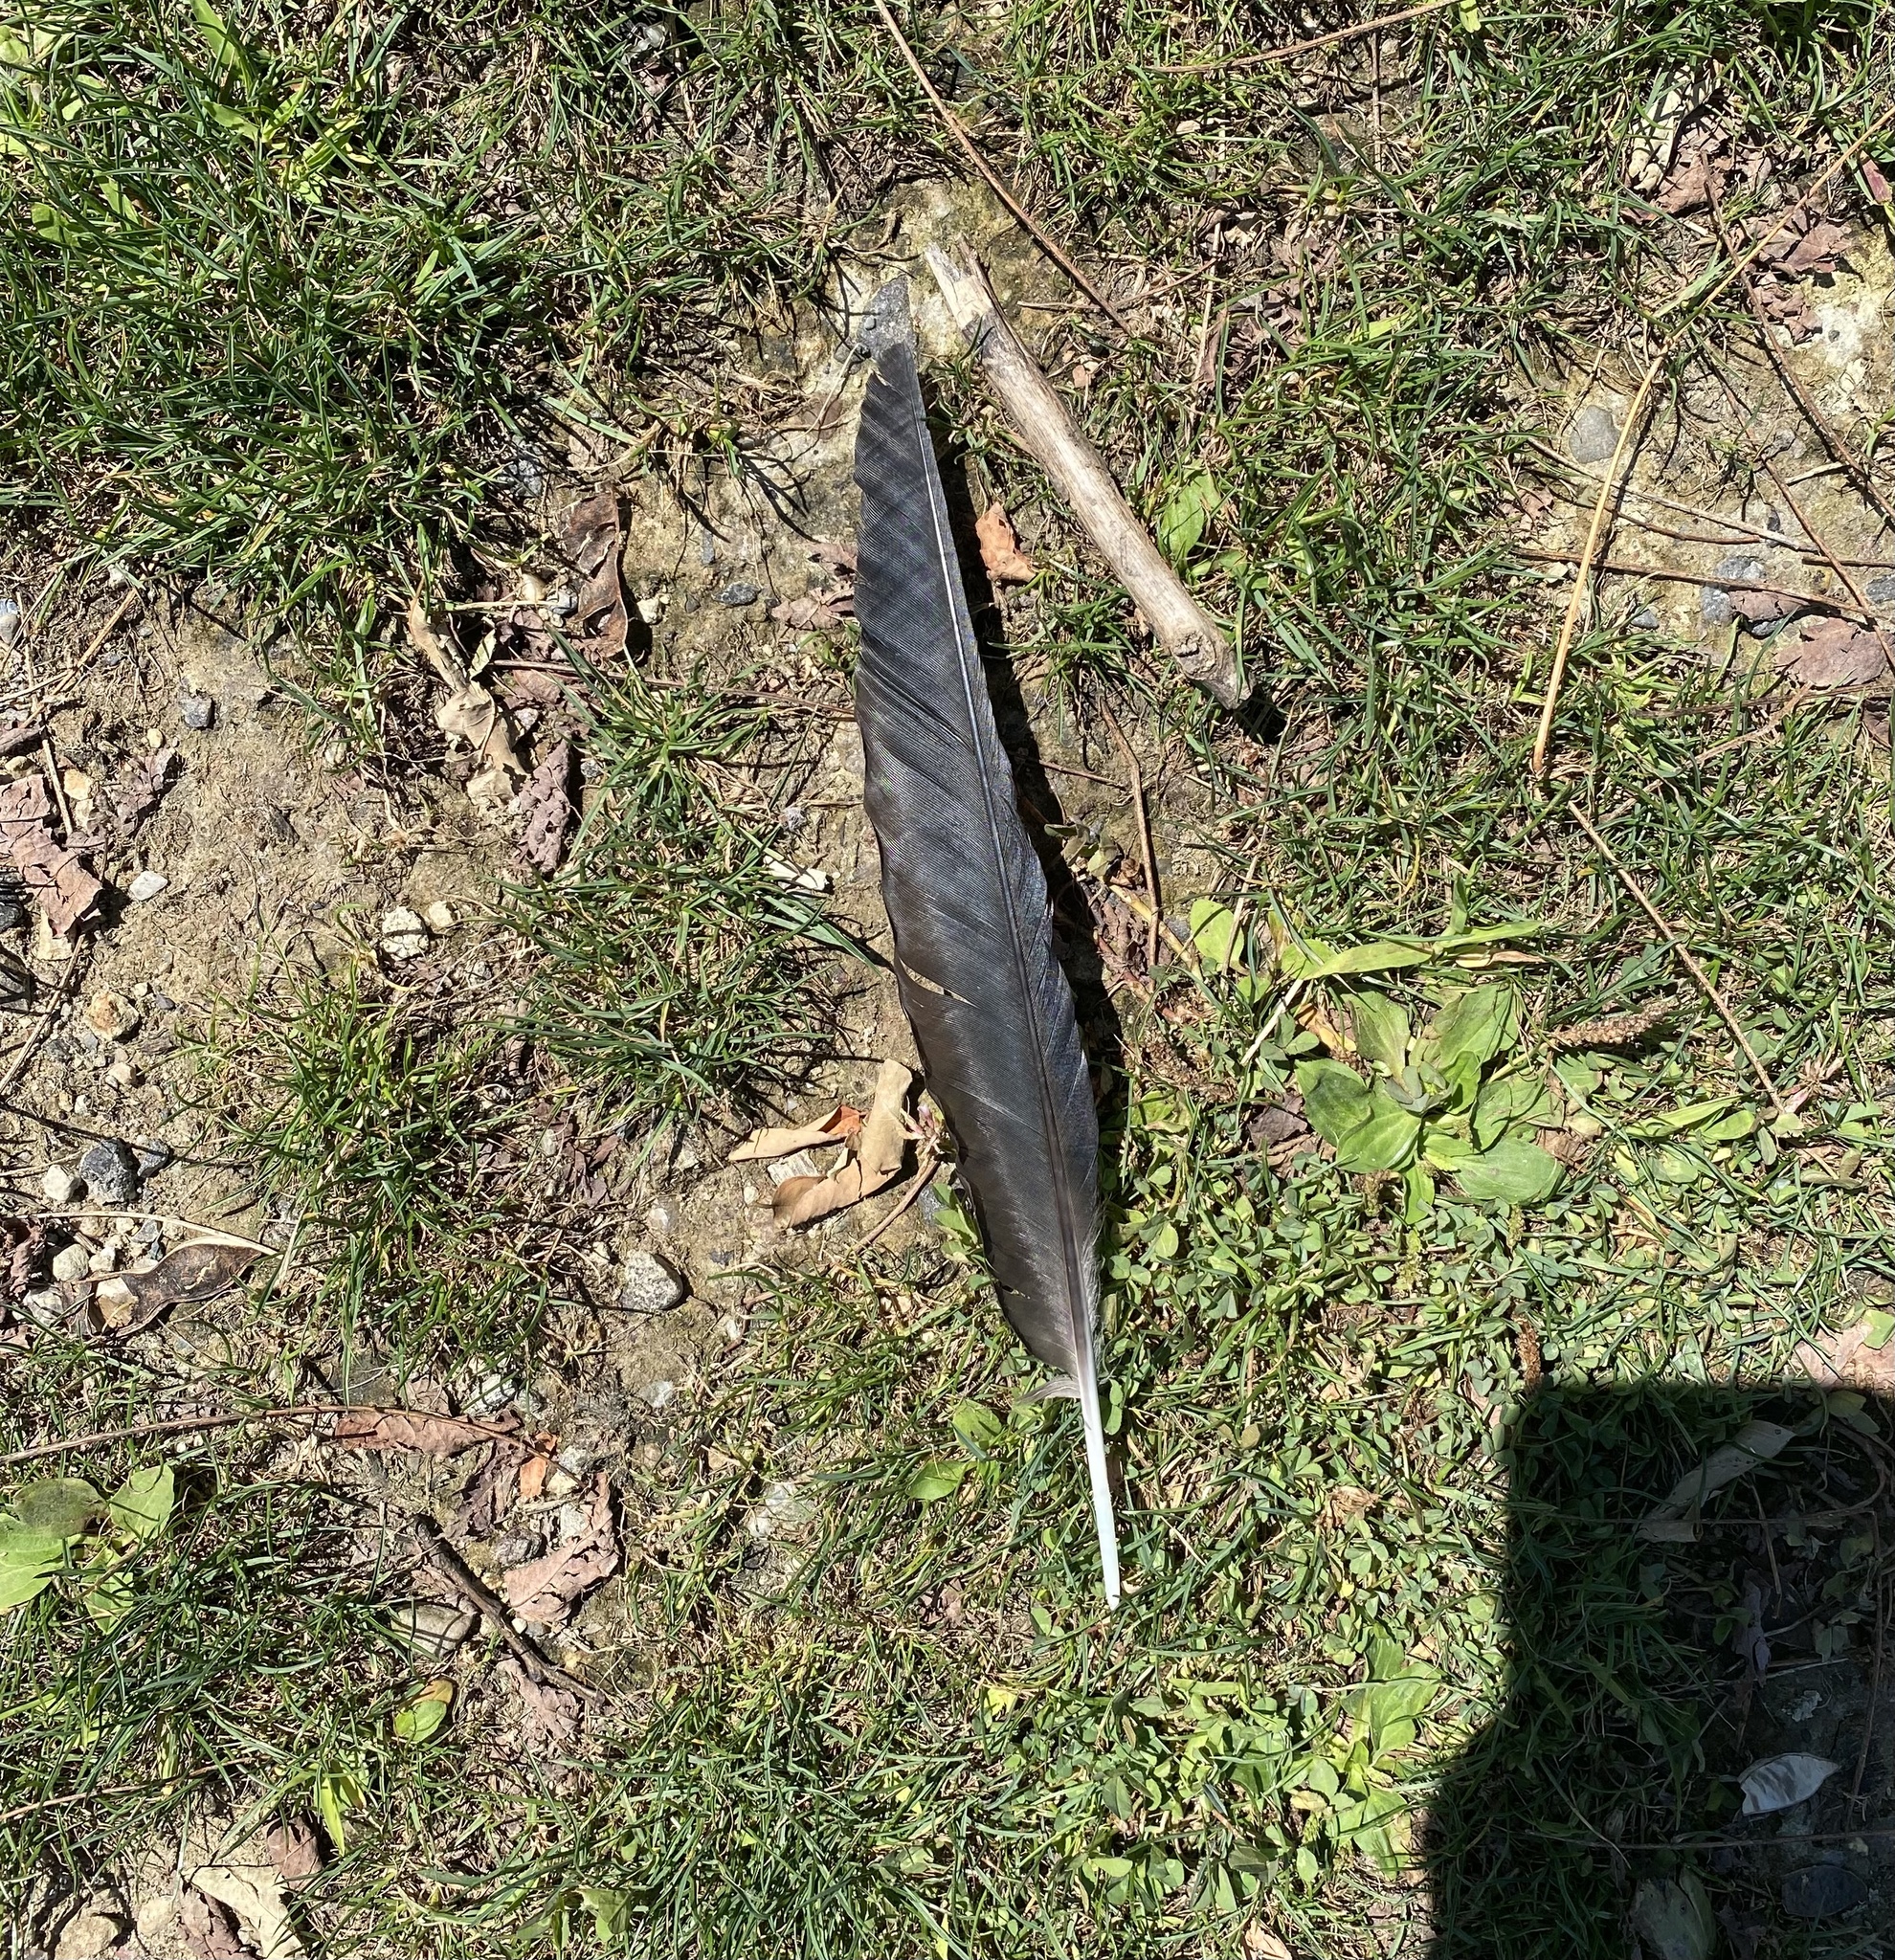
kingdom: Animalia
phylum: Chordata
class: Aves
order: Anseriformes
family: Anatidae
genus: Branta
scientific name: Branta canadensis
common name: Canada goose
